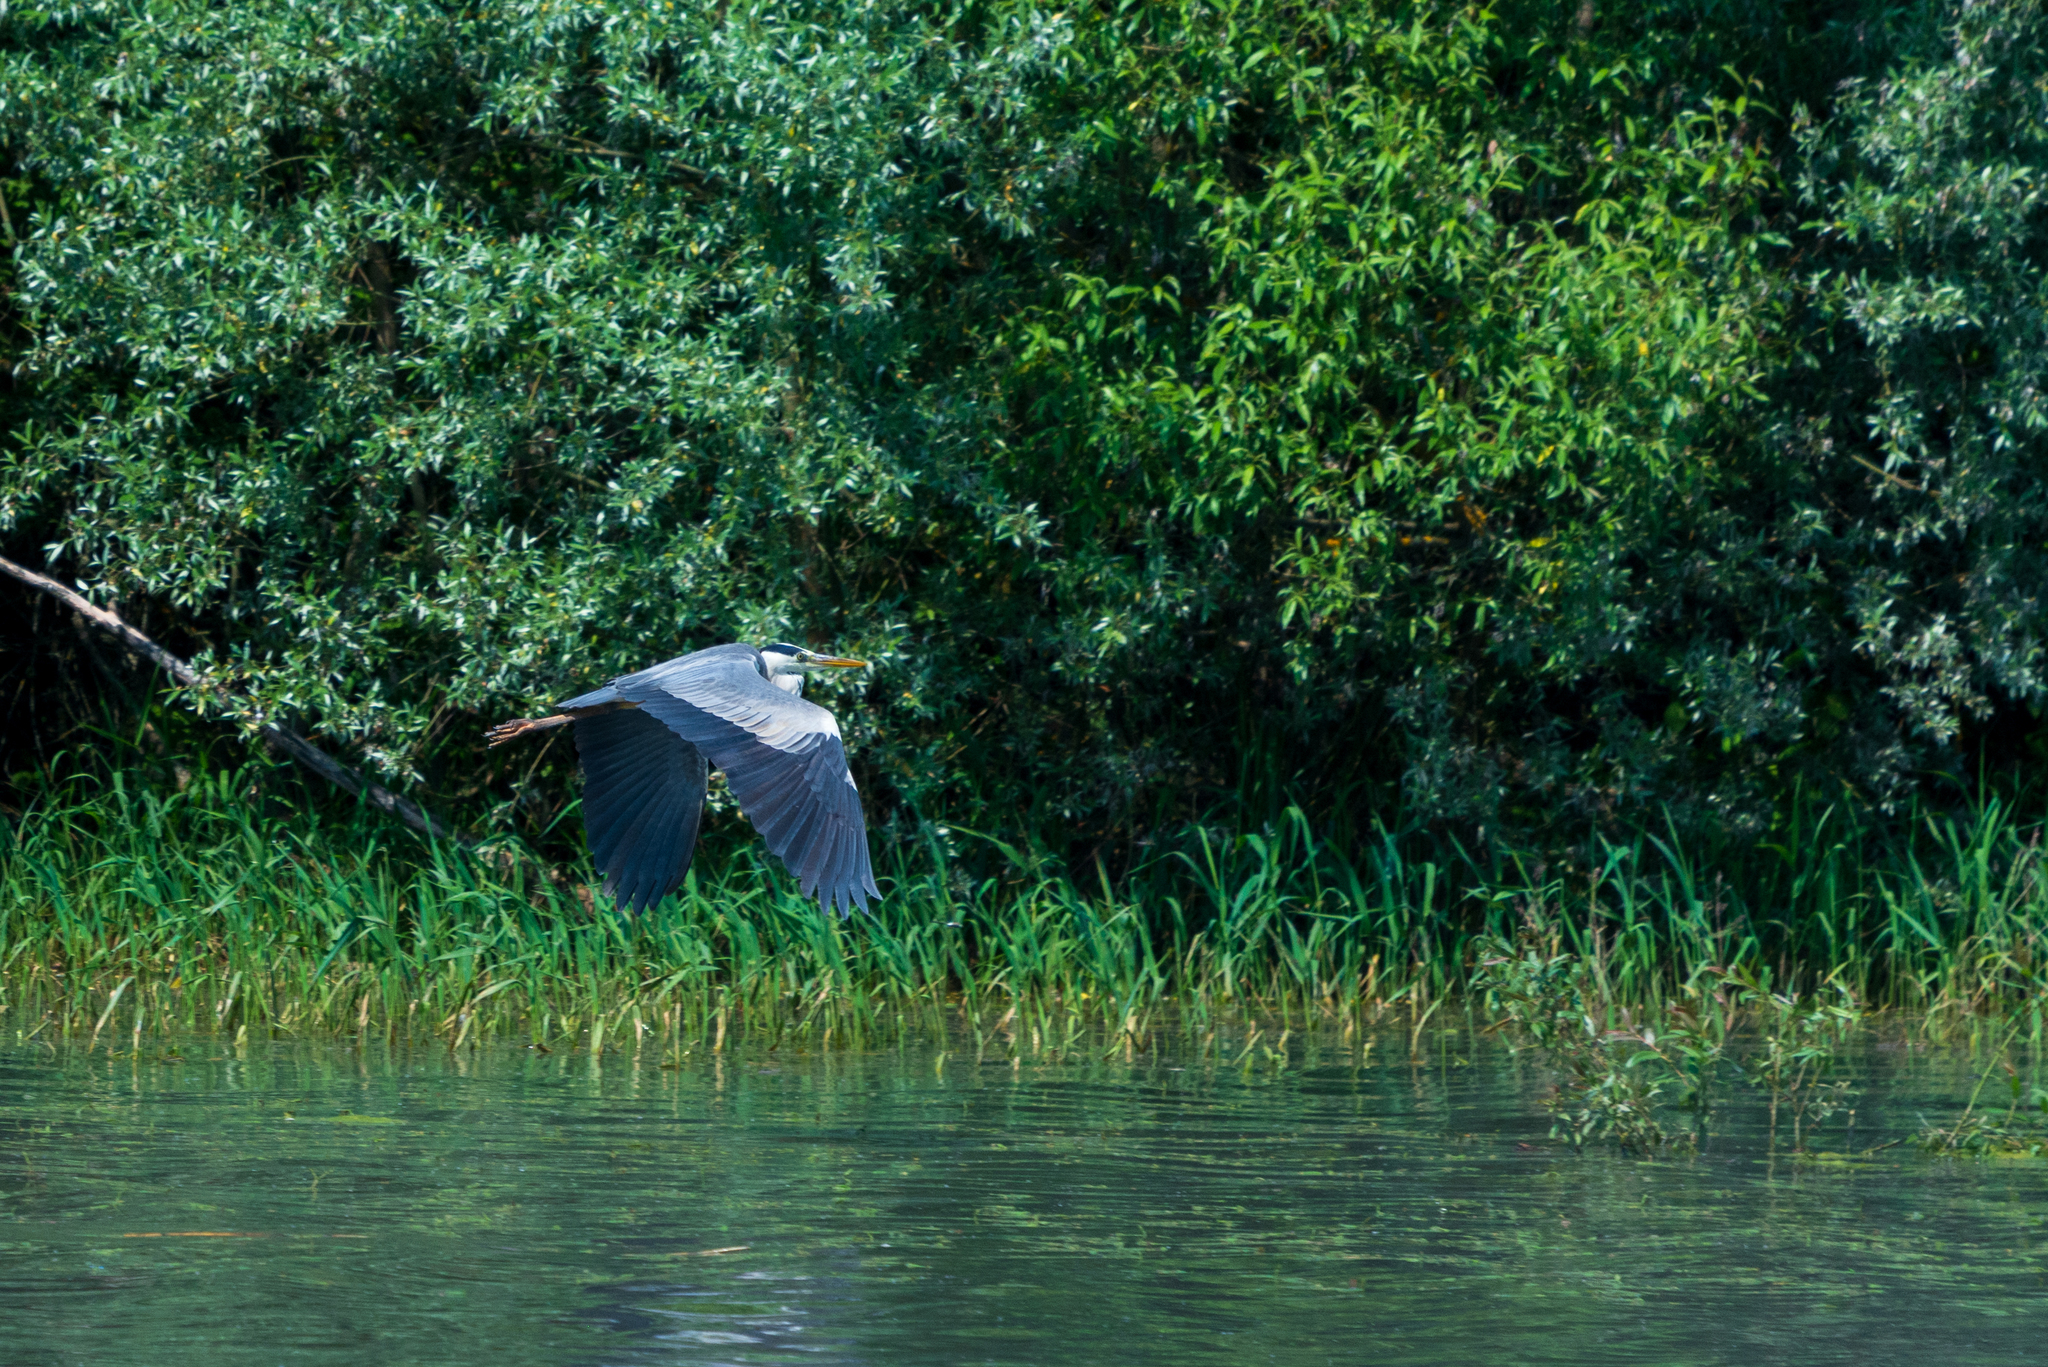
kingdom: Animalia
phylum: Chordata
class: Aves
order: Pelecaniformes
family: Ardeidae
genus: Ardea
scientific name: Ardea cinerea
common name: Grey heron
